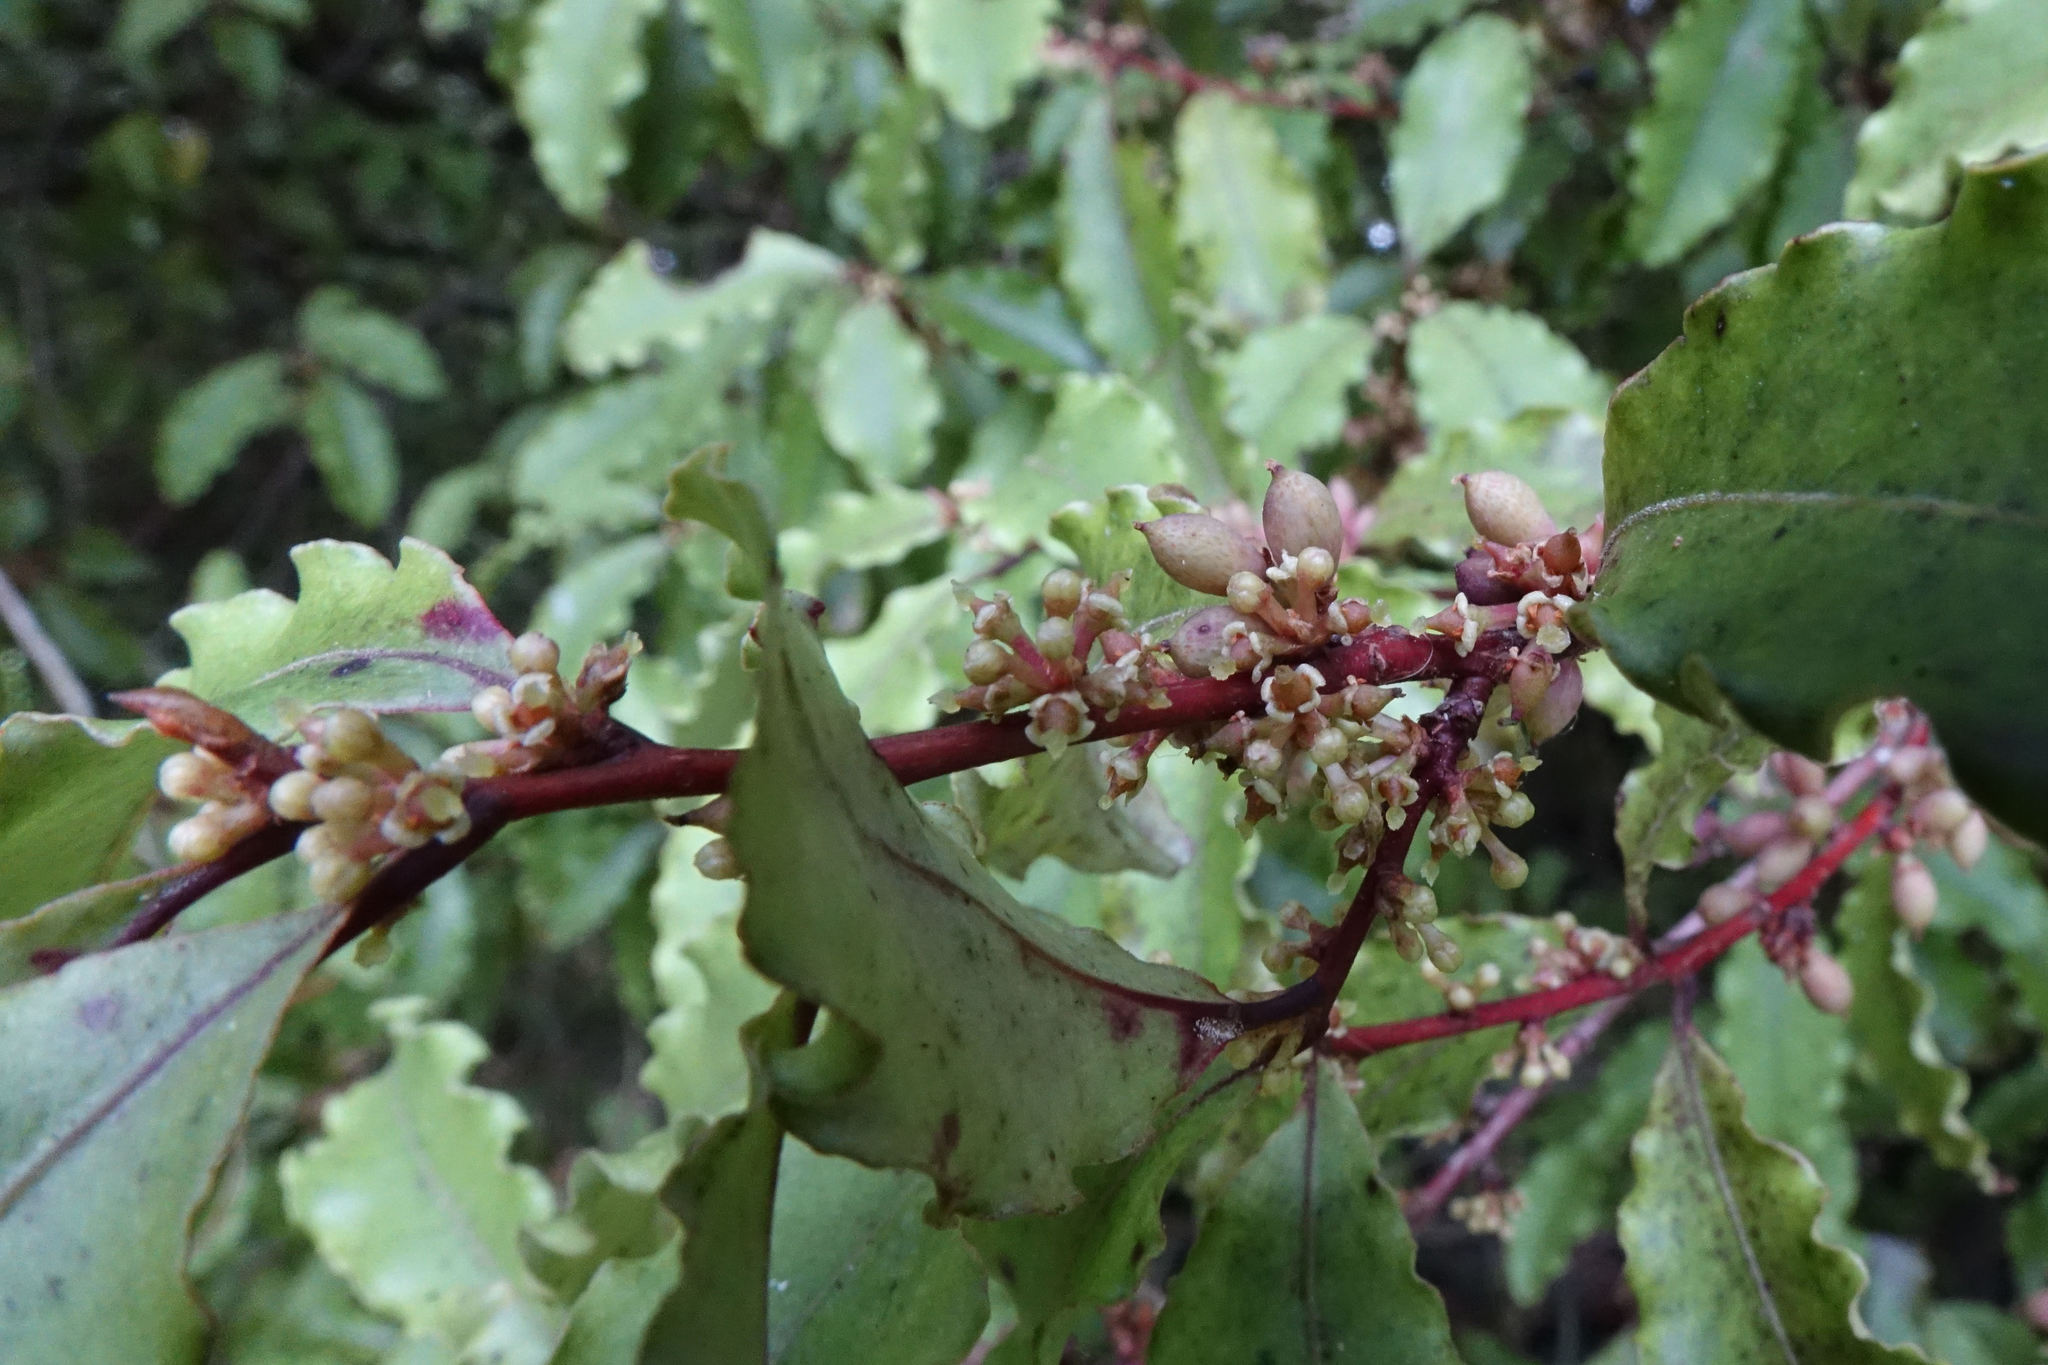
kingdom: Plantae
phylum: Tracheophyta
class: Magnoliopsida
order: Ericales
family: Primulaceae
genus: Myrsine
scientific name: Myrsine australis
